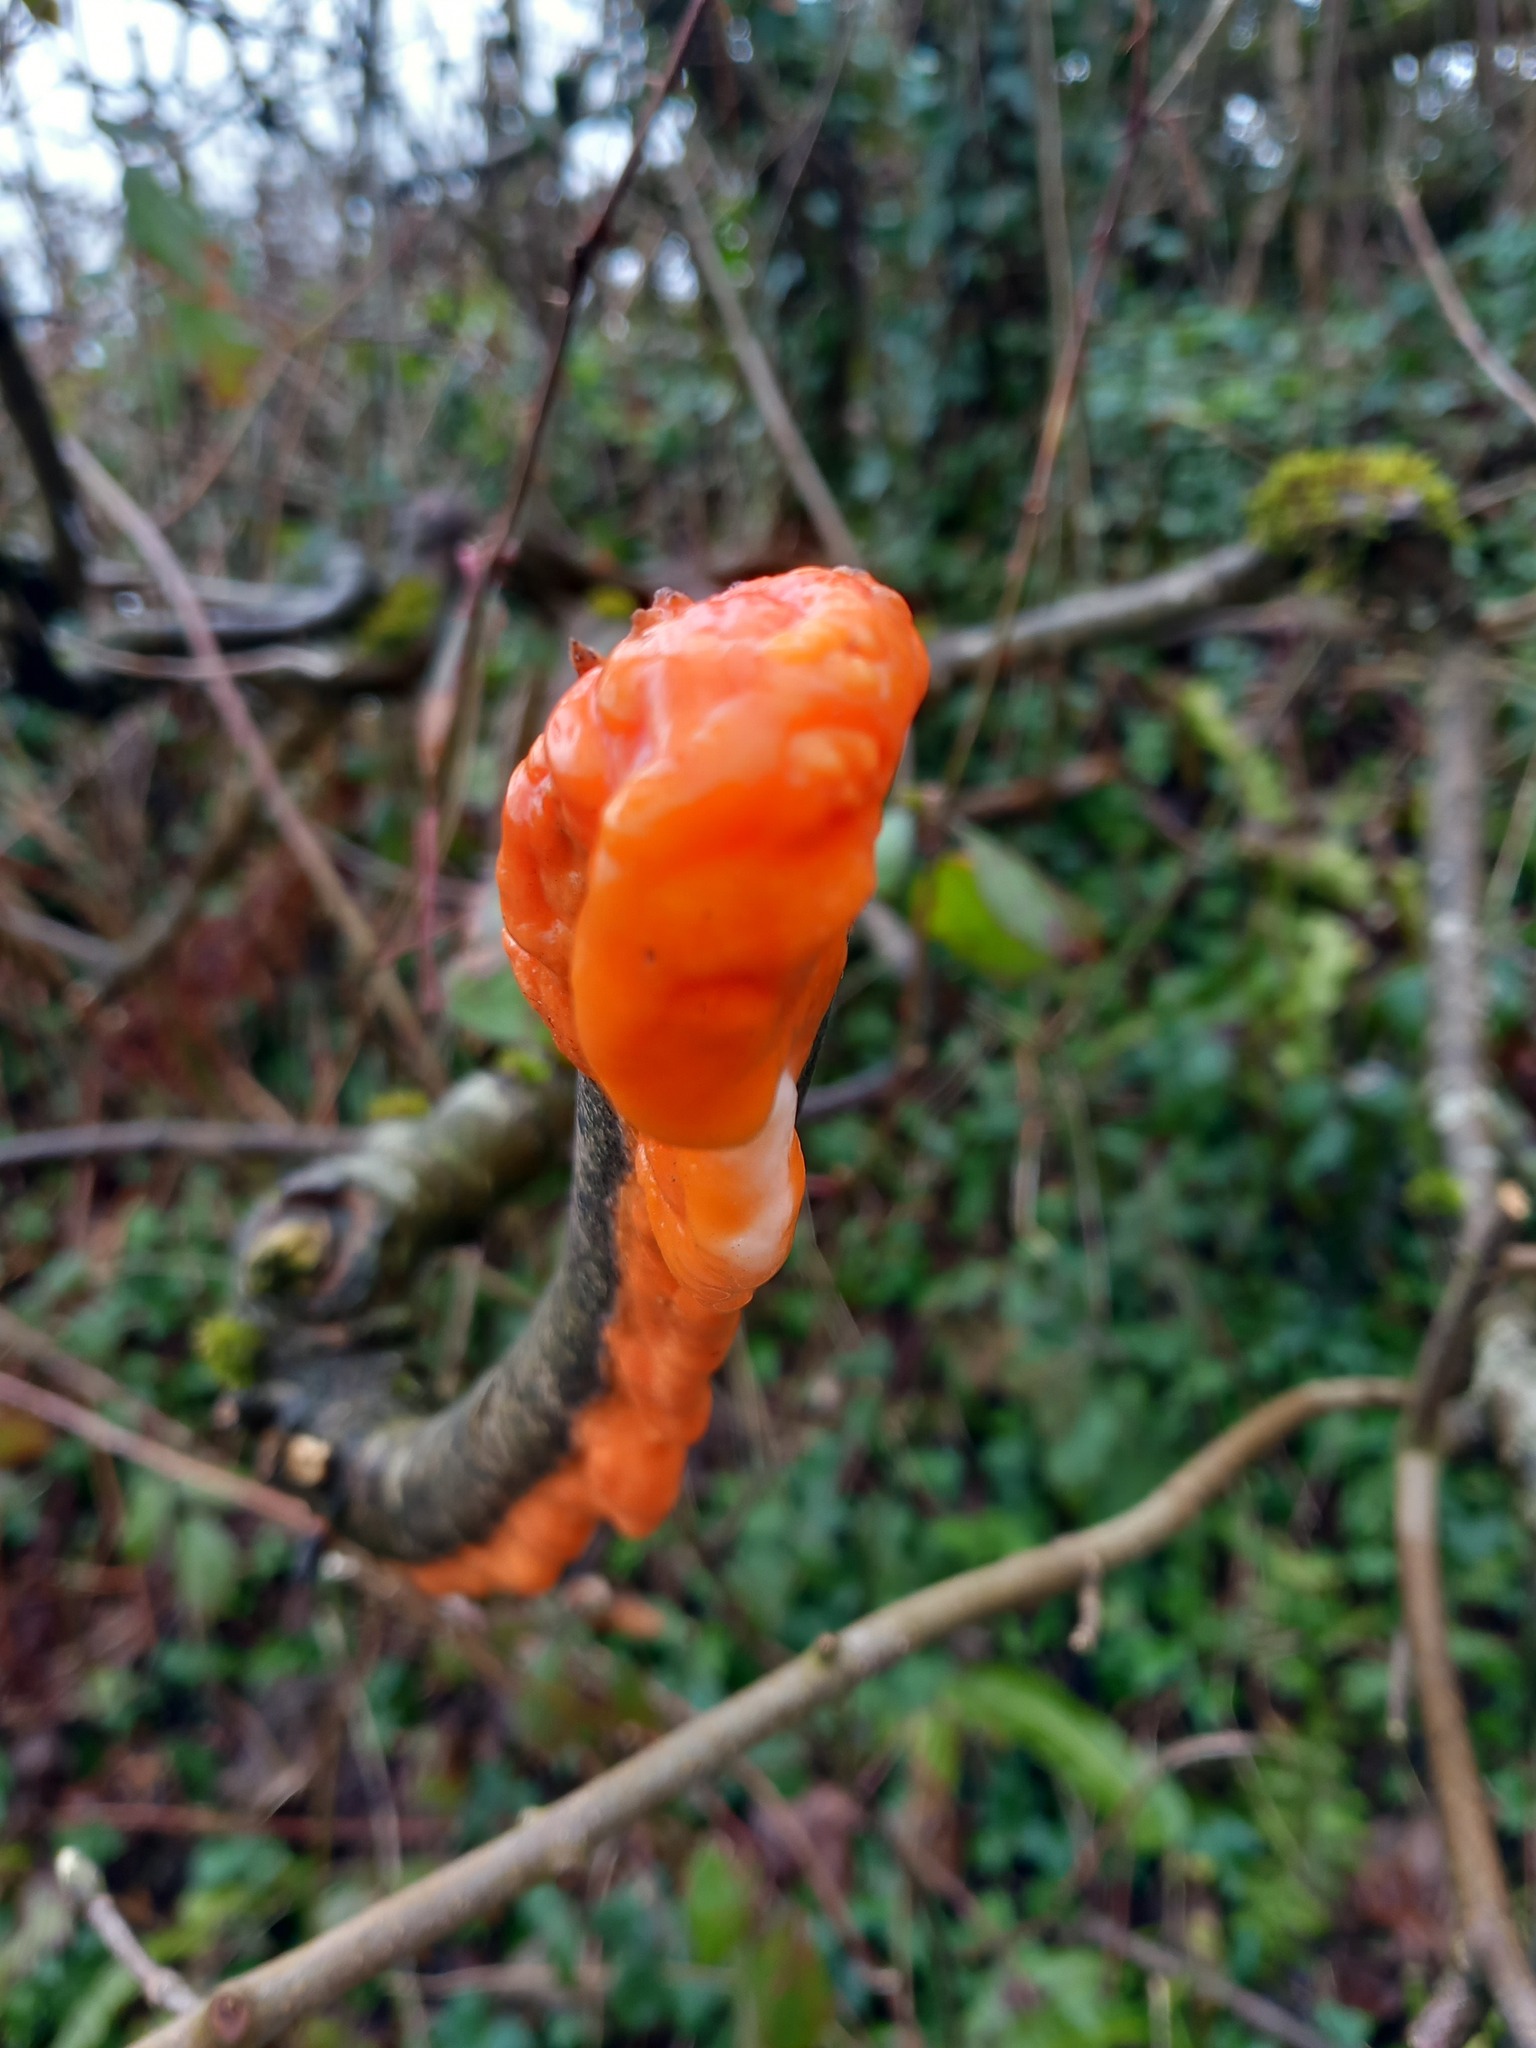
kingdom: Fungi
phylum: Ascomycota
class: Sordariomycetes
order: Hypocreales
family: Nectriaceae
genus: Fusicolla
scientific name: Fusicolla merismoides
